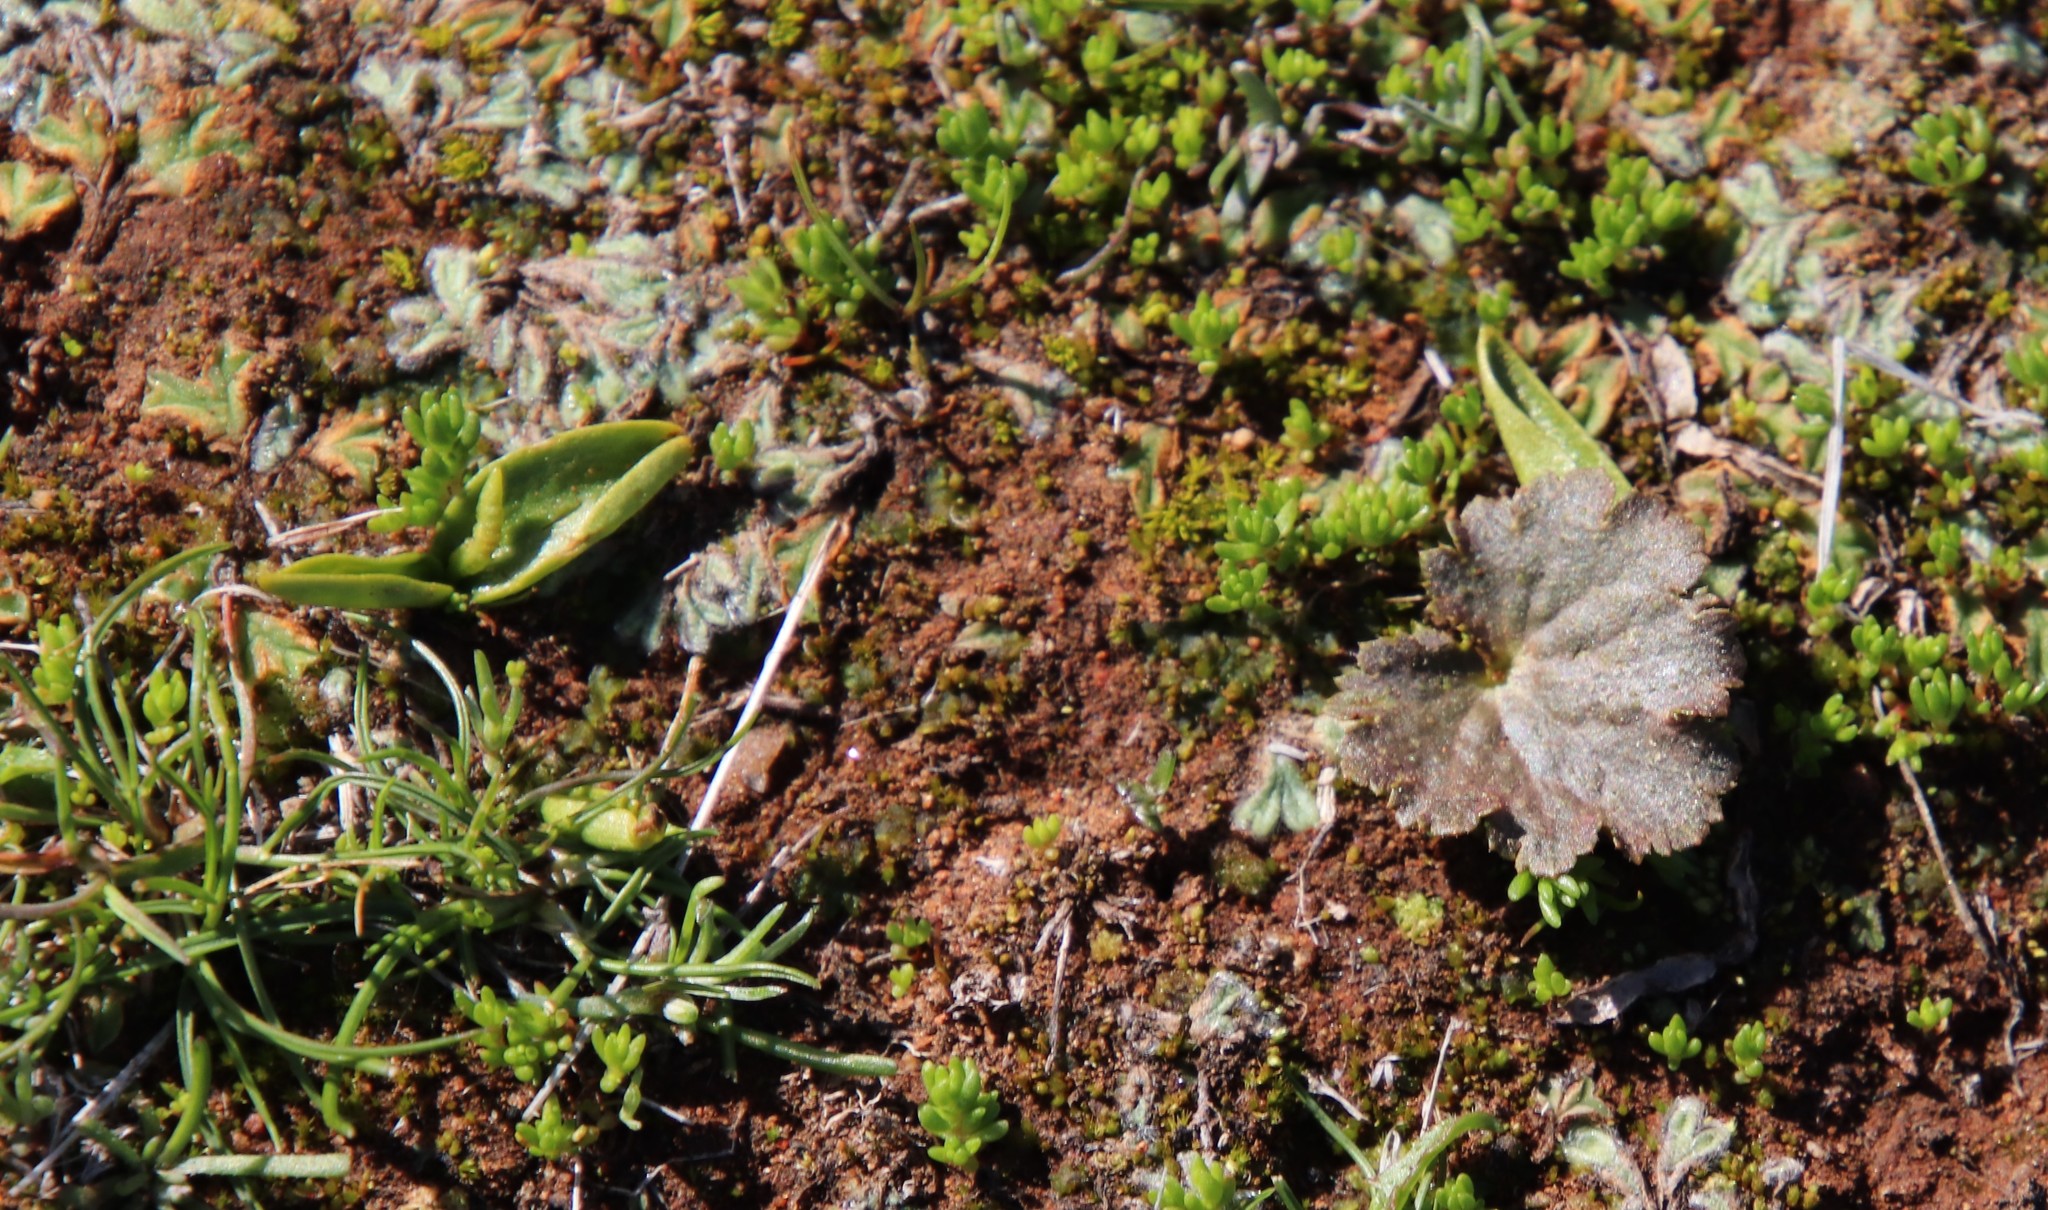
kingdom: Plantae
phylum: Tracheophyta
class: Magnoliopsida
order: Saxifragales
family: Saxifragaceae
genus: Jepsonia
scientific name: Jepsonia parryi
